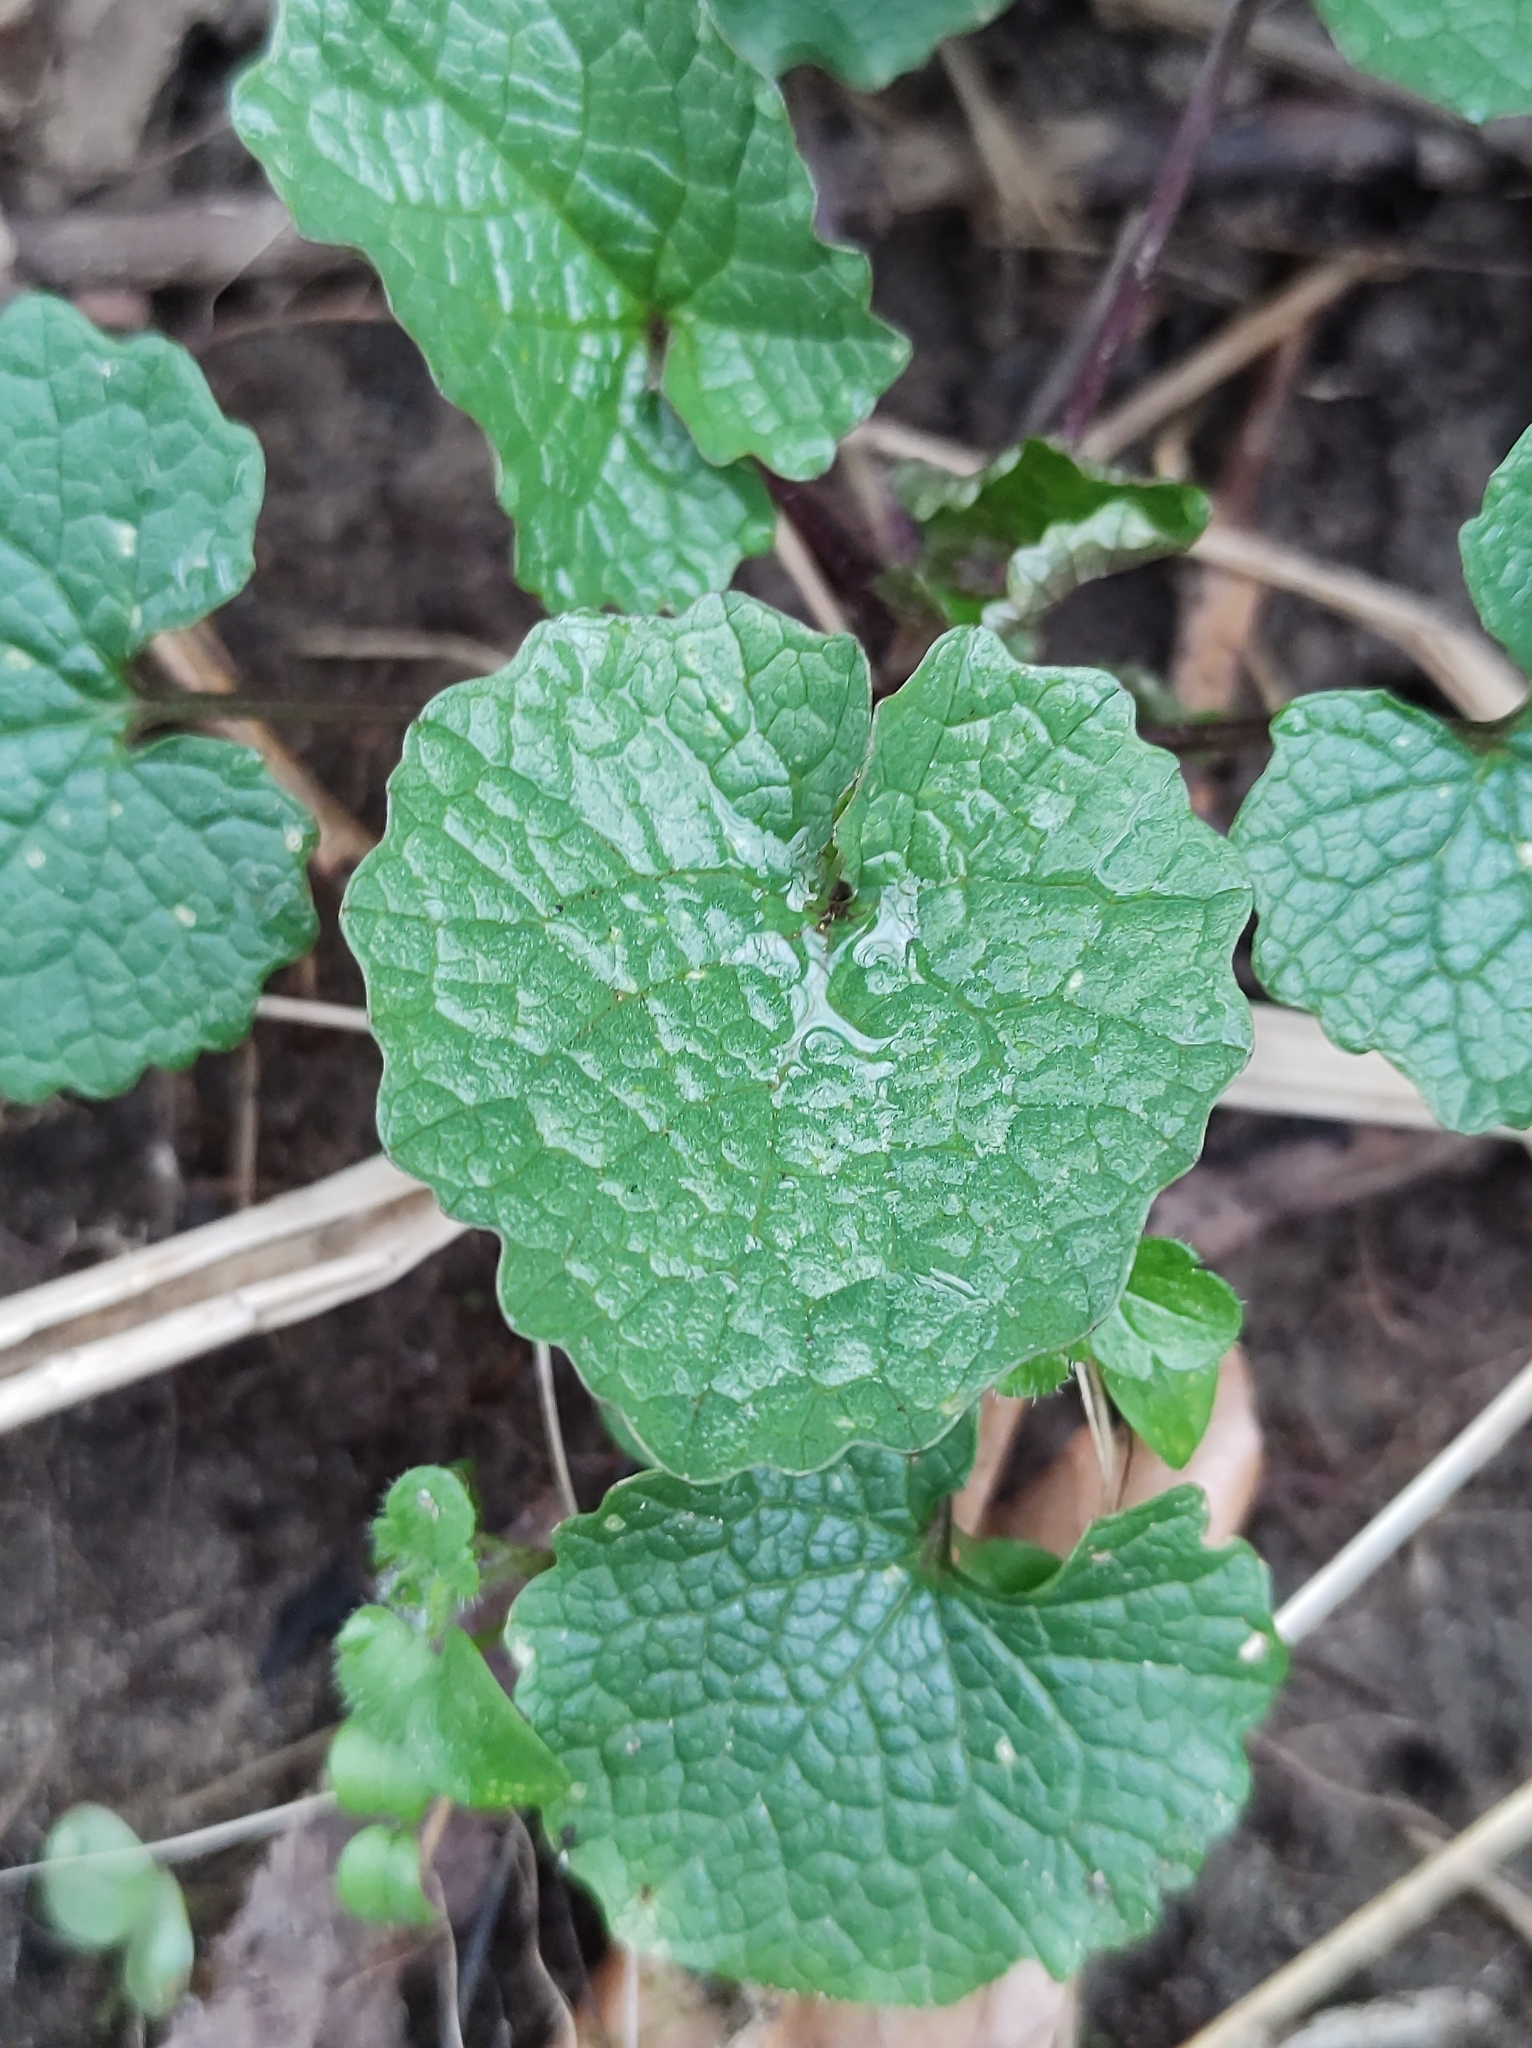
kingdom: Plantae
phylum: Tracheophyta
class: Magnoliopsida
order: Brassicales
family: Brassicaceae
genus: Alliaria
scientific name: Alliaria petiolata
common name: Garlic mustard
